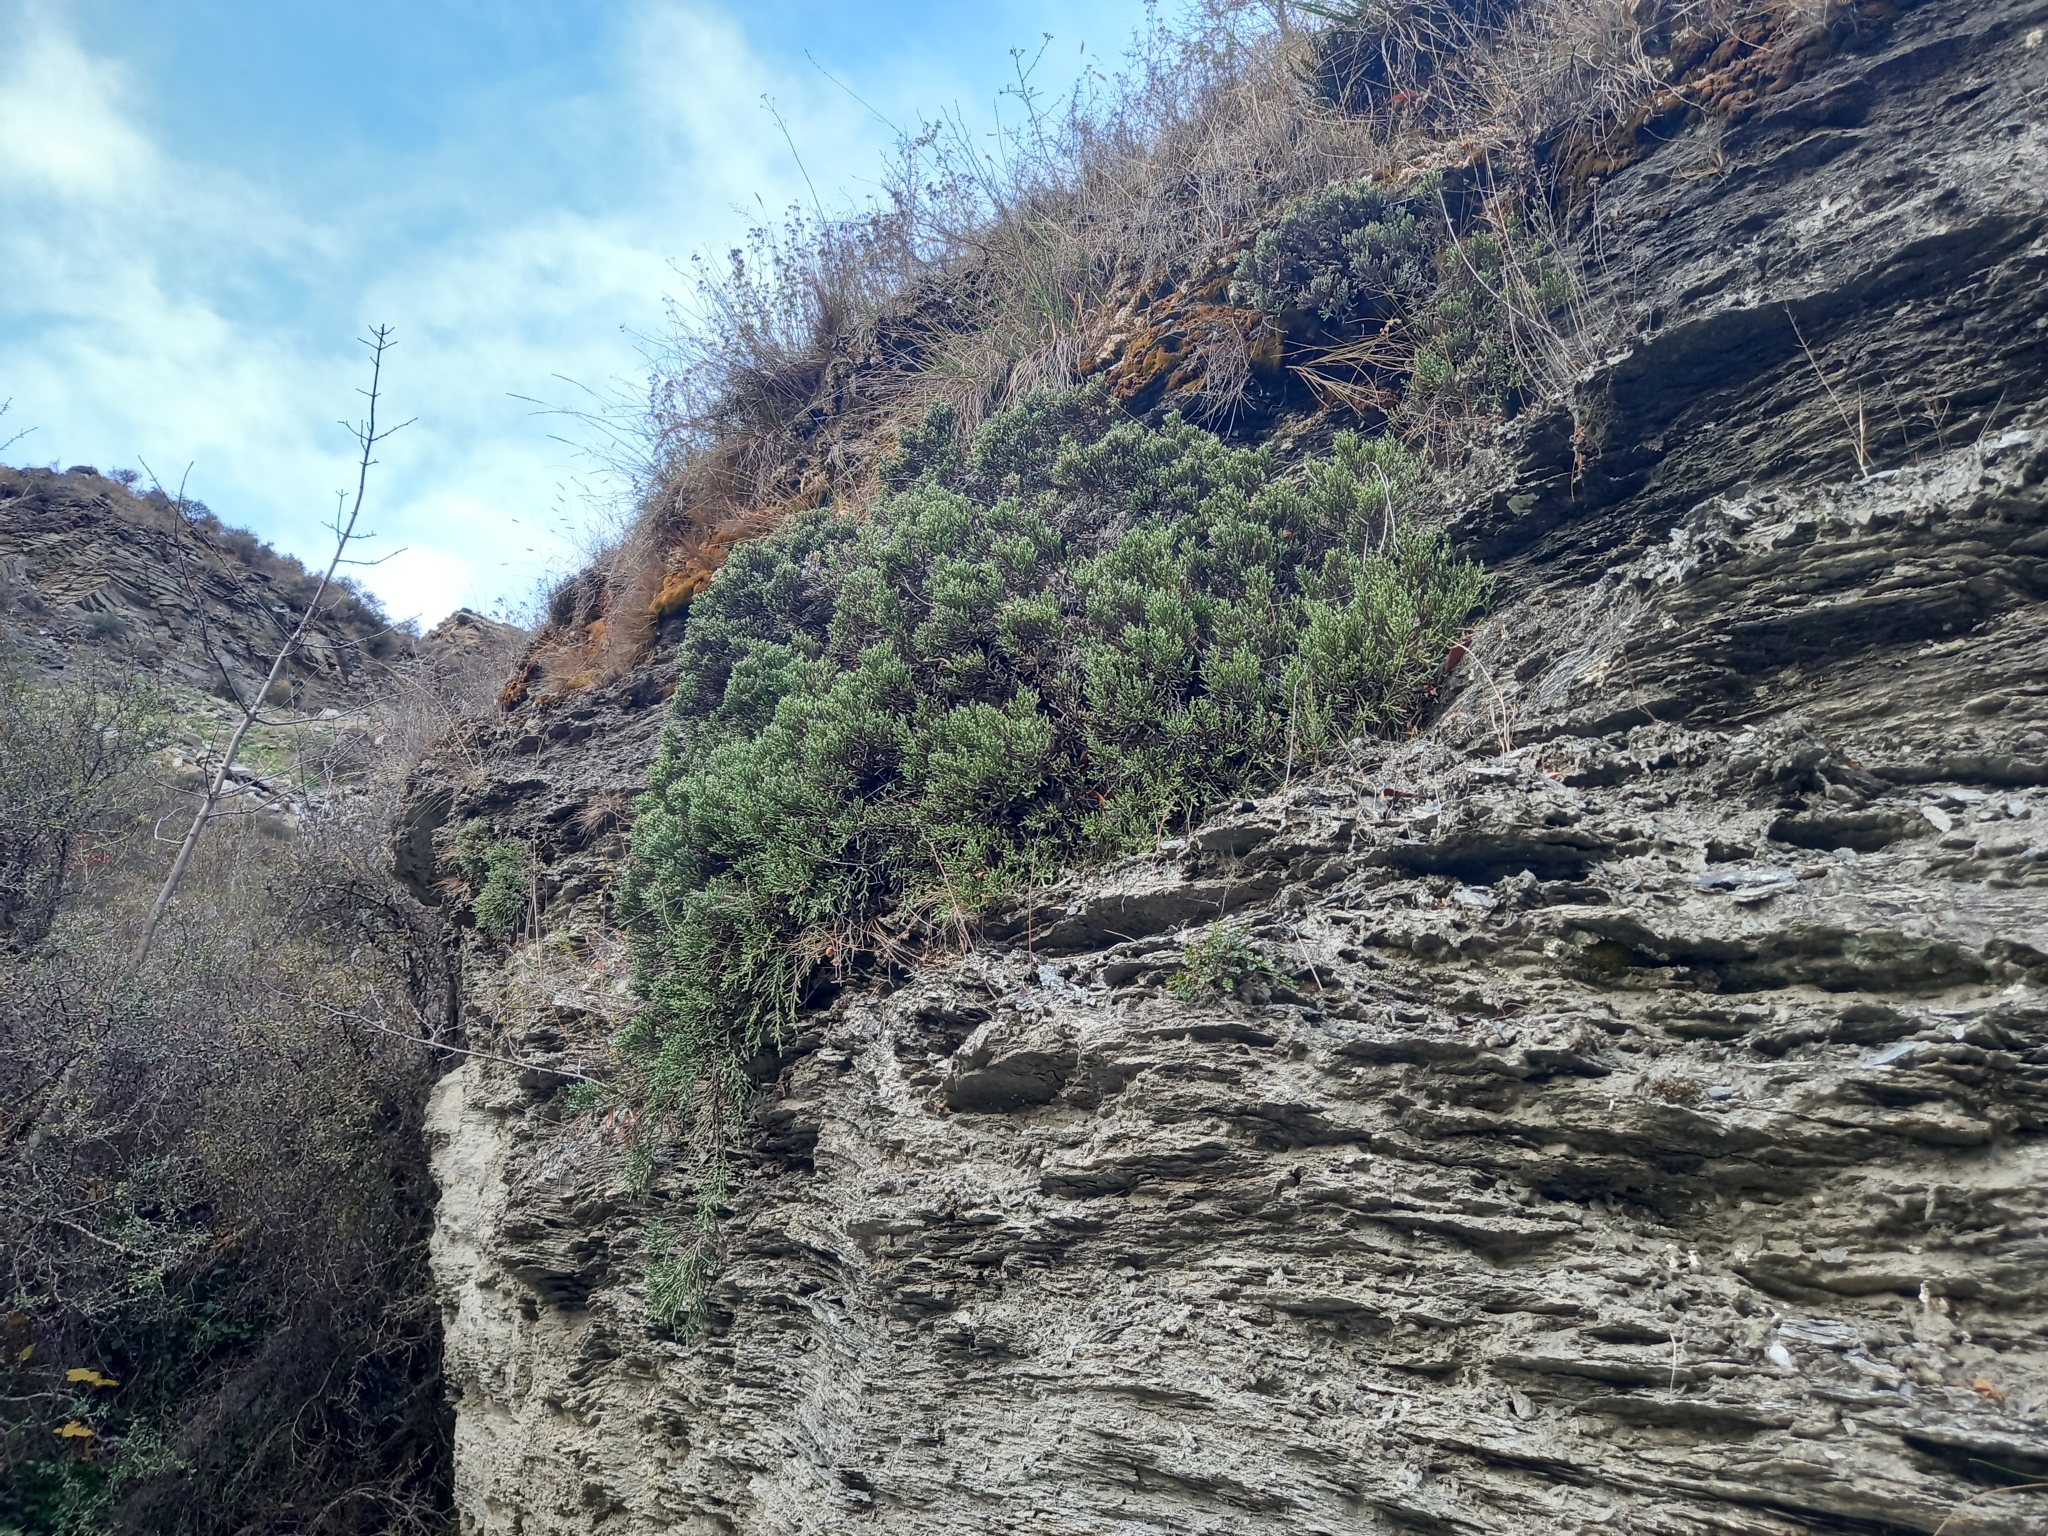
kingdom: Plantae
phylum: Tracheophyta
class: Magnoliopsida
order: Asterales
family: Asteraceae
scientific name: Asteraceae
